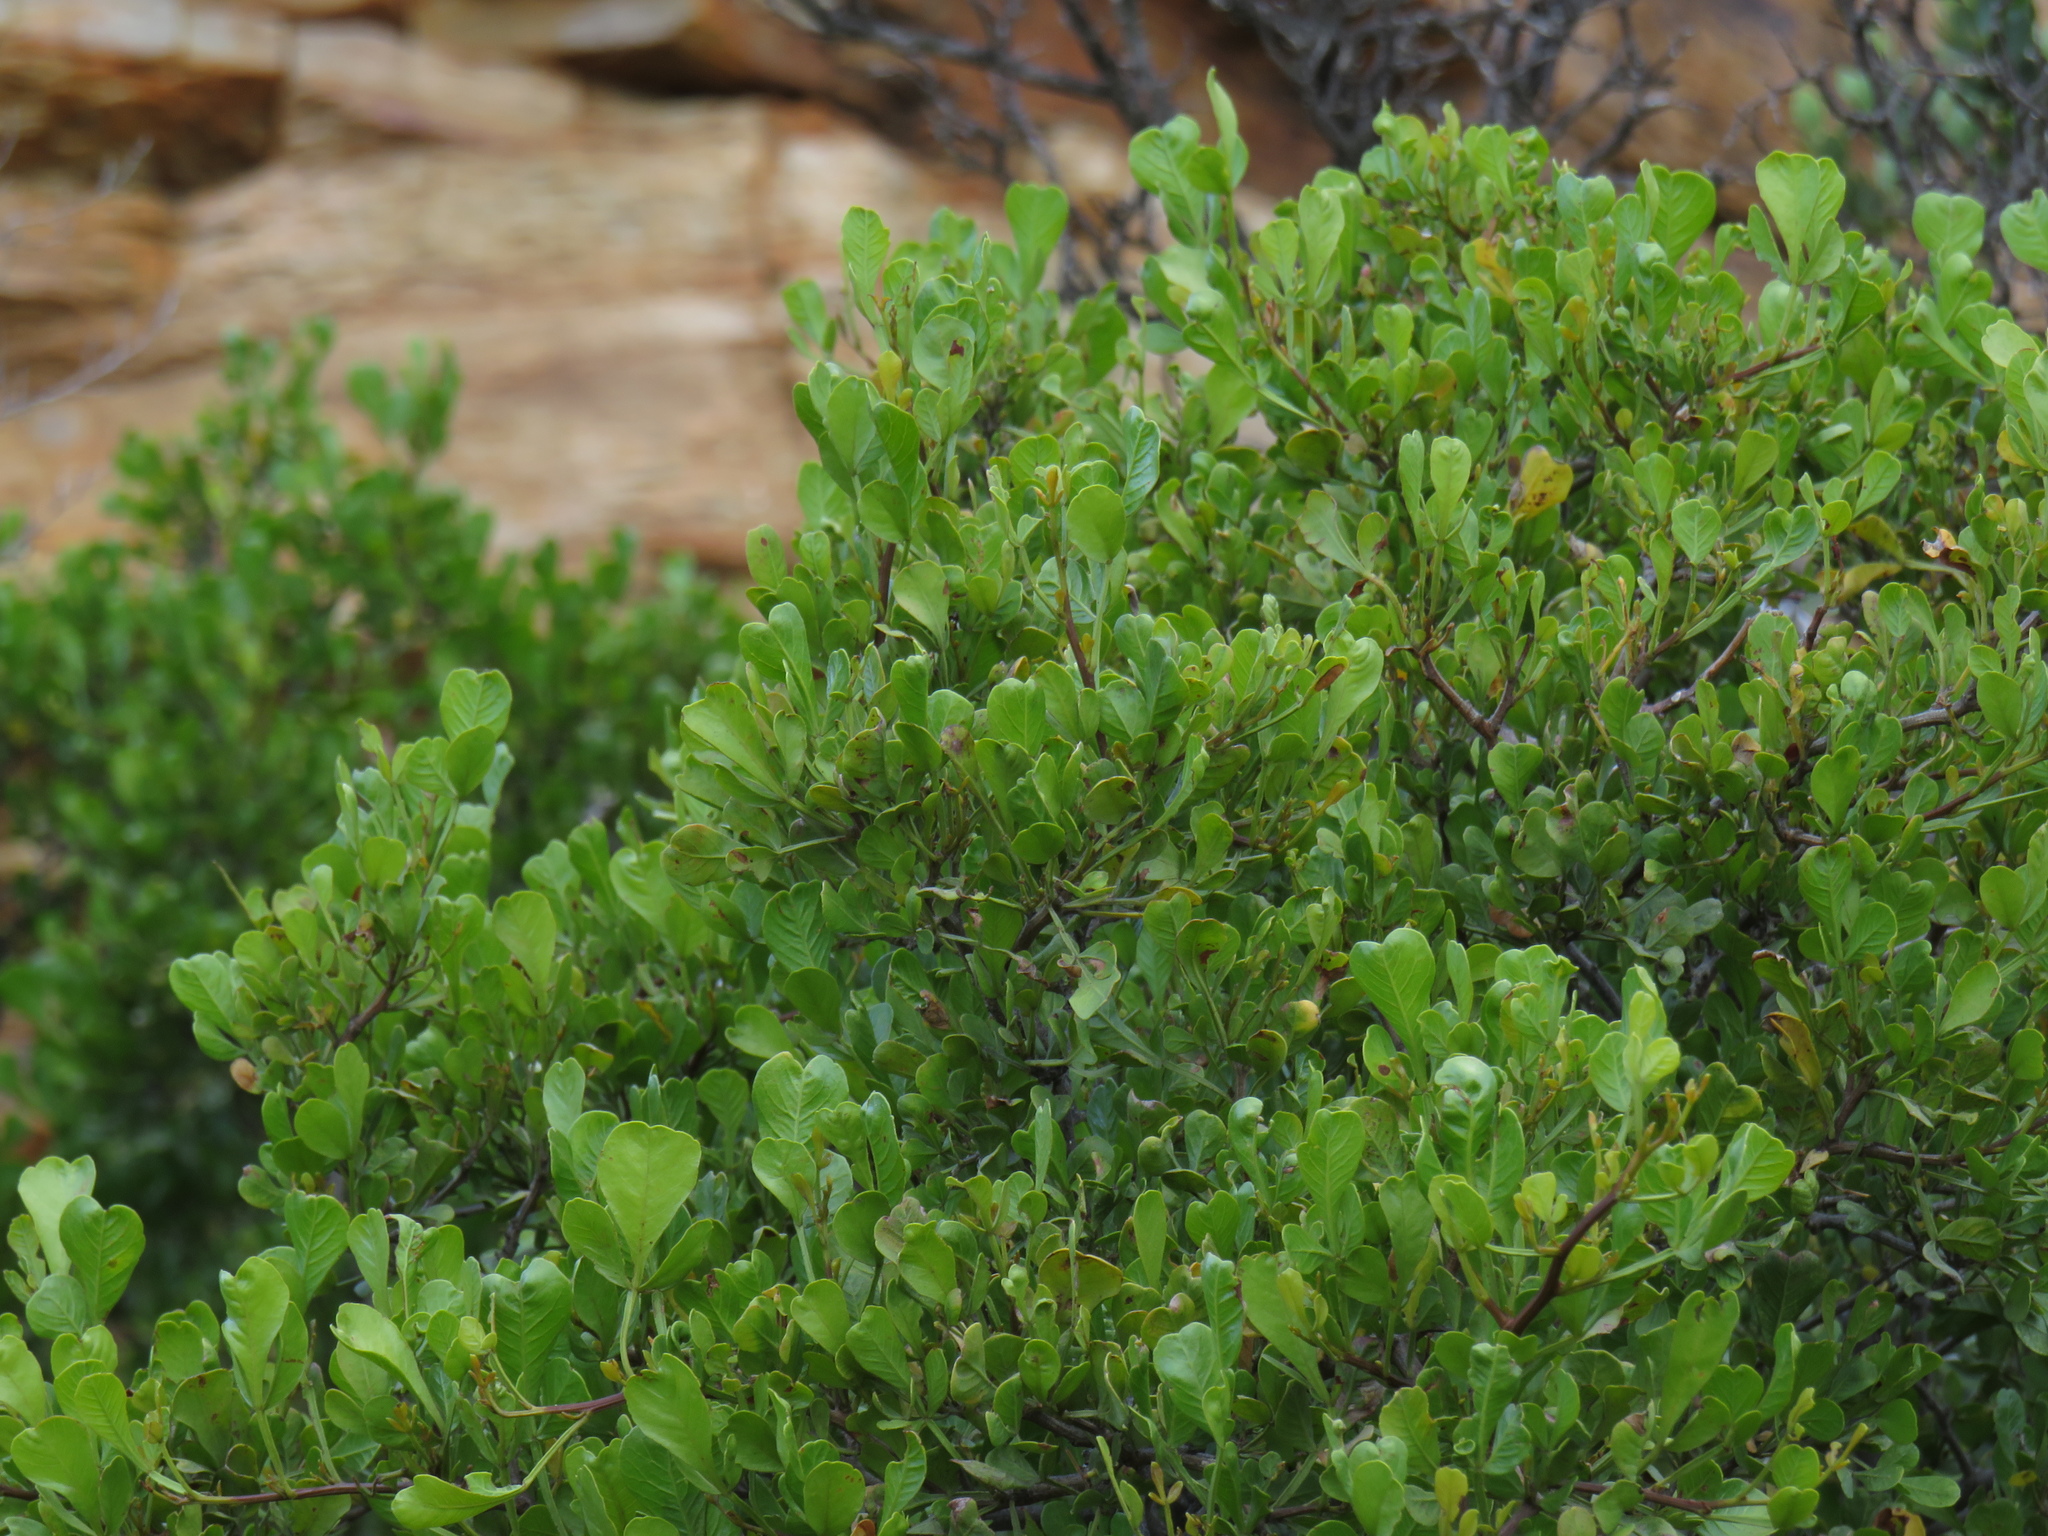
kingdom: Plantae
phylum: Tracheophyta
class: Magnoliopsida
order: Sapindales
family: Anacardiaceae
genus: Searsia
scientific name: Searsia undulata
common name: Namaqua kunibush
